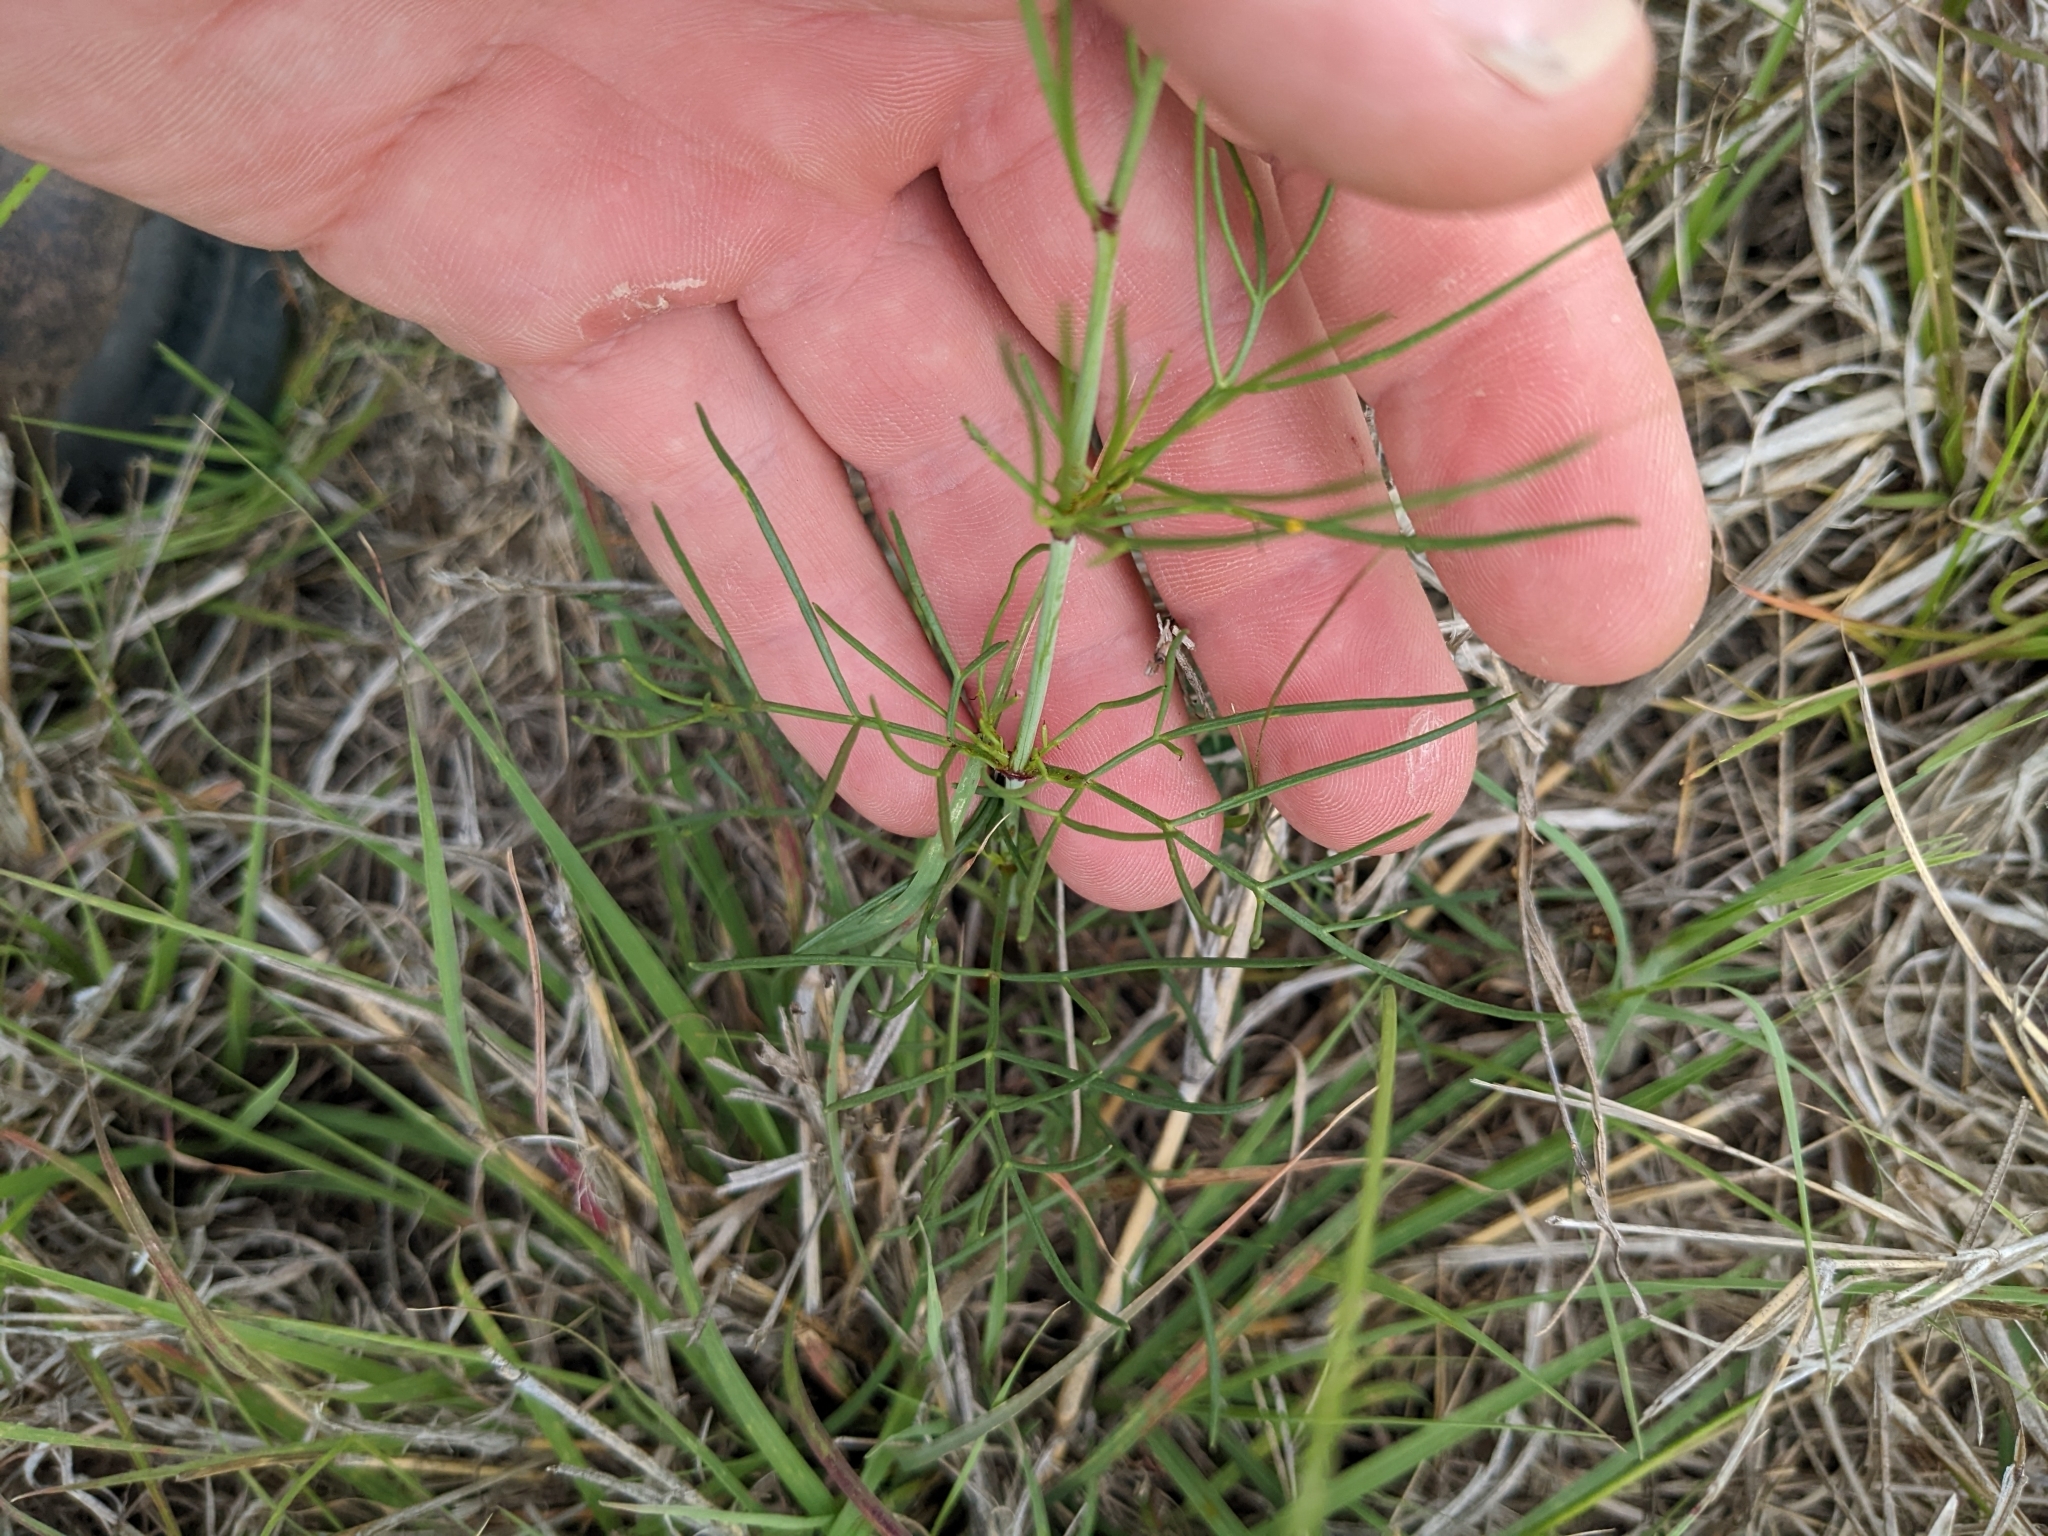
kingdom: Plantae
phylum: Tracheophyta
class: Magnoliopsida
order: Asterales
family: Asteraceae
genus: Thelesperma
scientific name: Thelesperma burridgeanum
